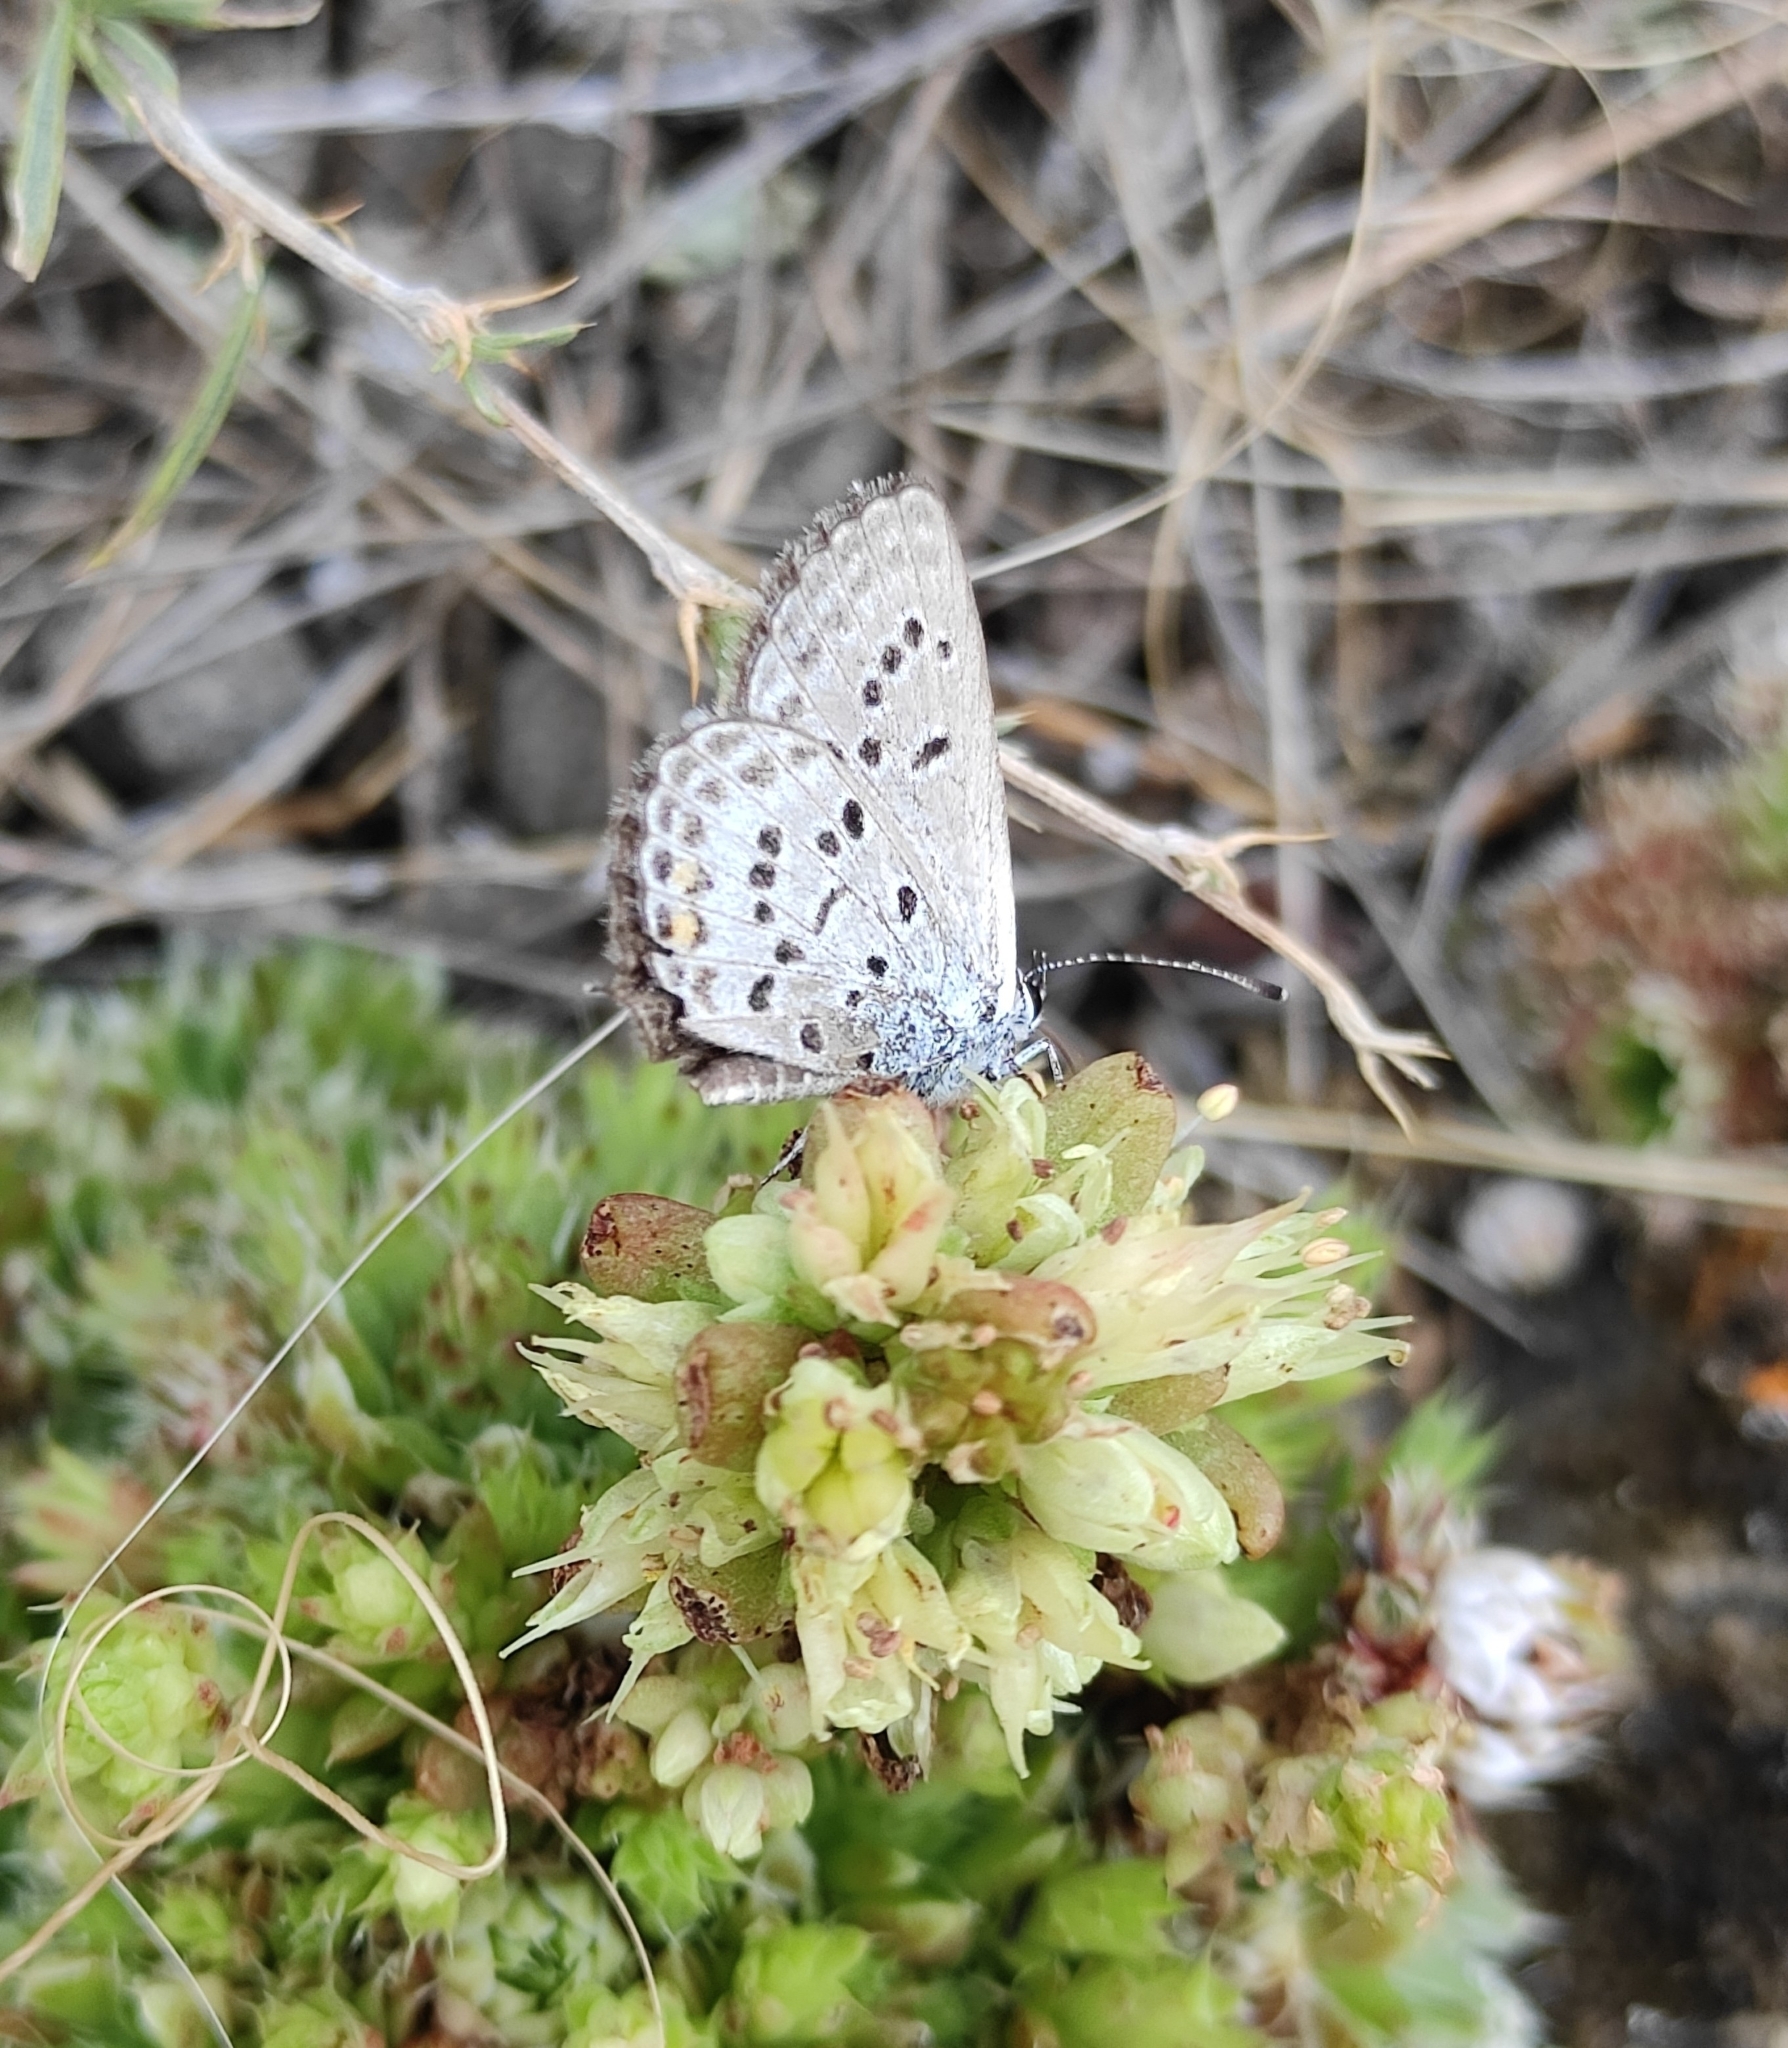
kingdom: Animalia
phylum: Arthropoda
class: Insecta
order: Lepidoptera
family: Lycaenidae
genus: Tongeia
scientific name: Tongeia fischeri
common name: Fischer's blue
